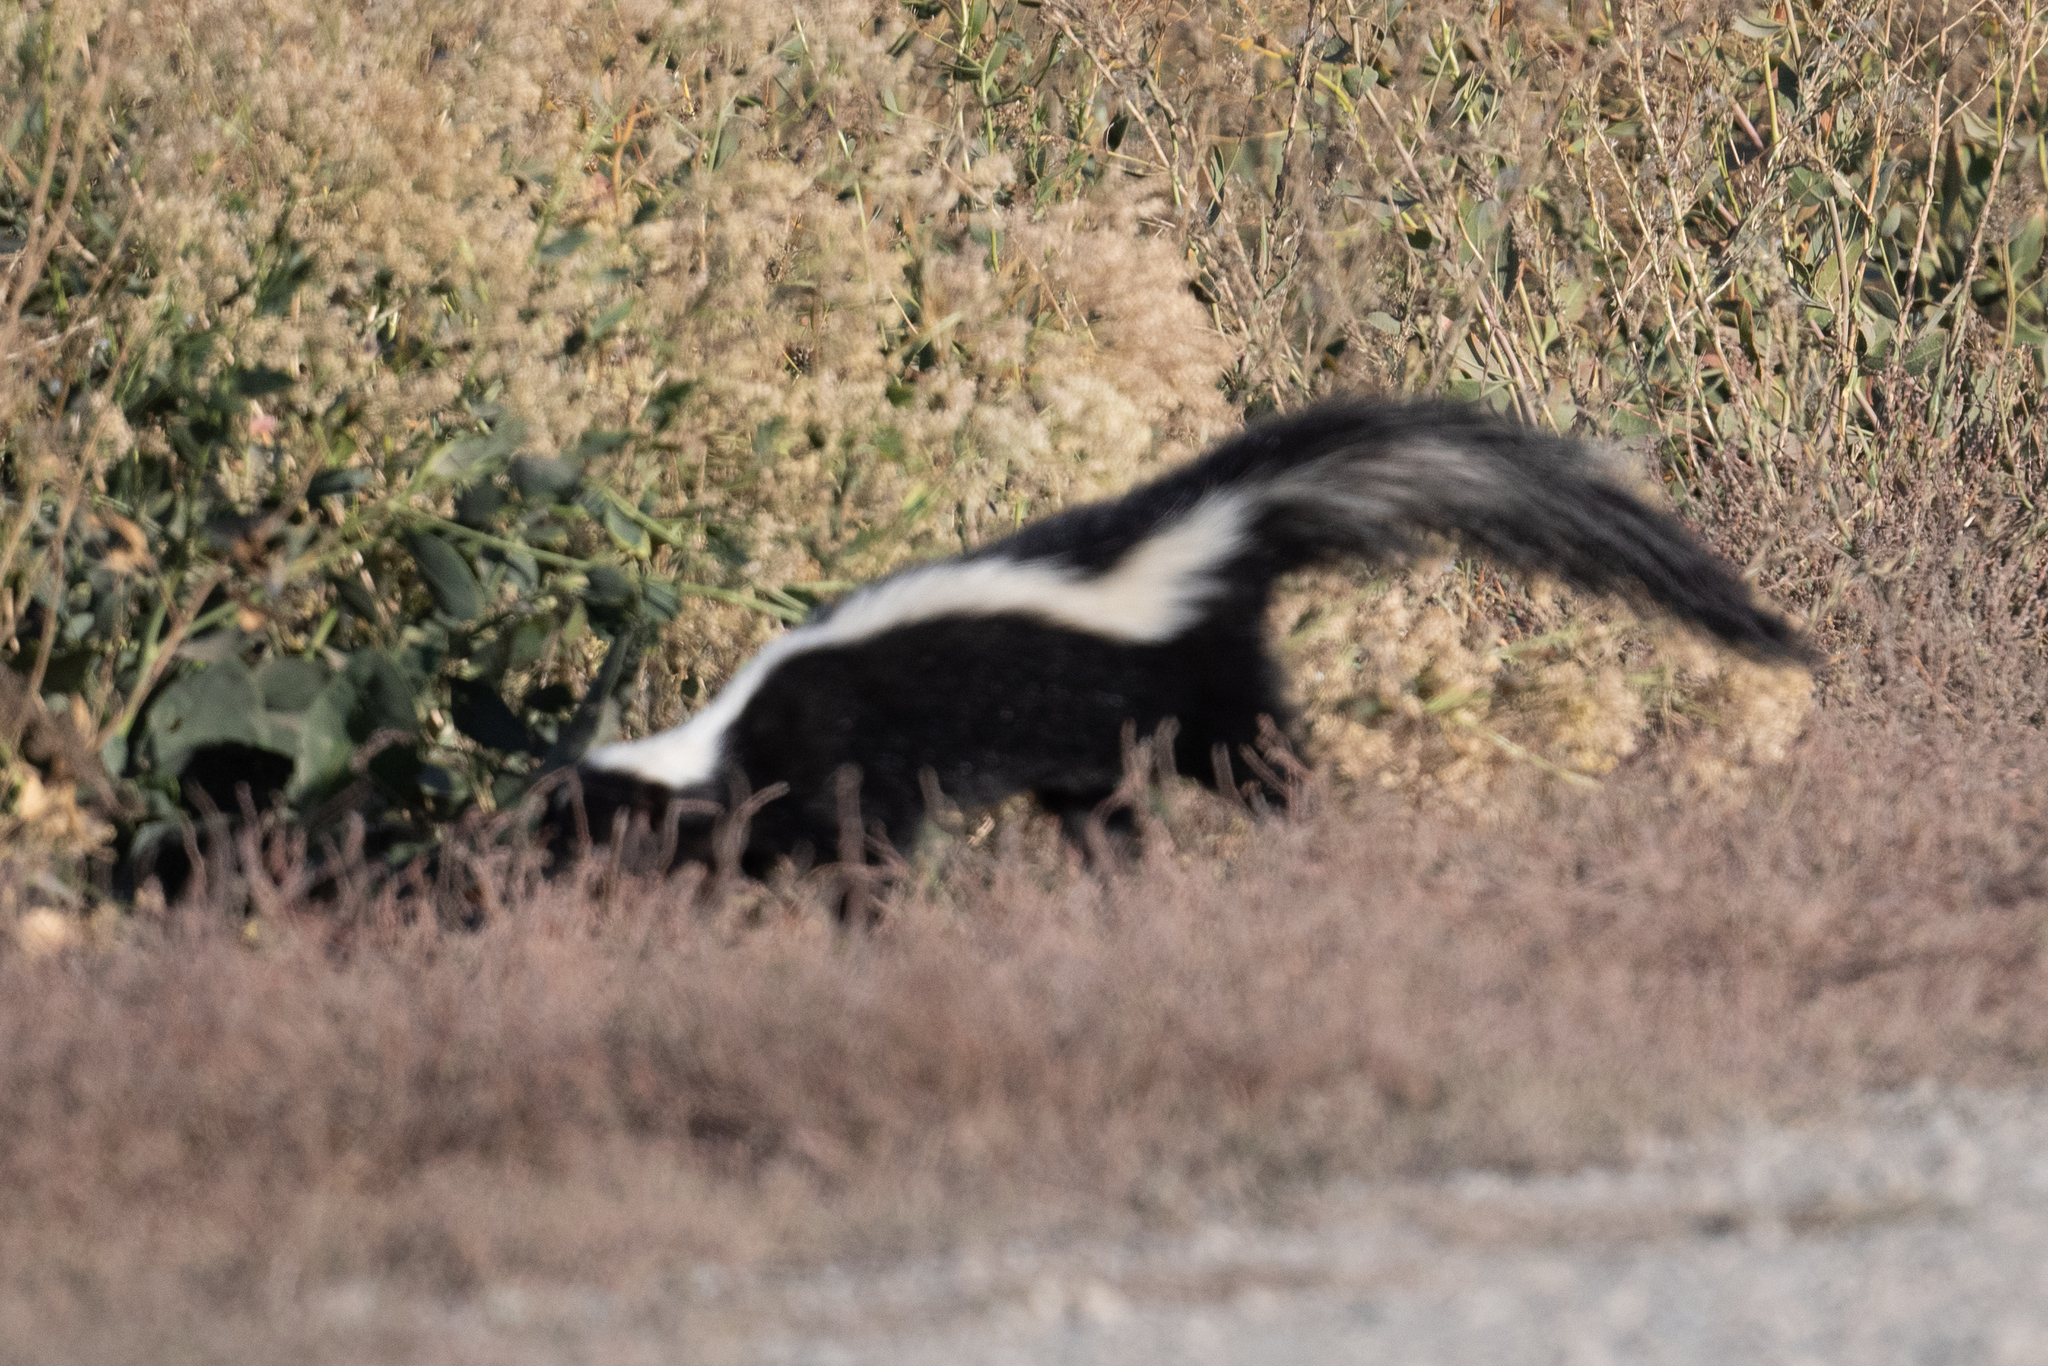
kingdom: Animalia
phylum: Chordata
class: Mammalia
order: Carnivora
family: Mephitidae
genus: Mephitis
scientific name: Mephitis mephitis
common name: Striped skunk
